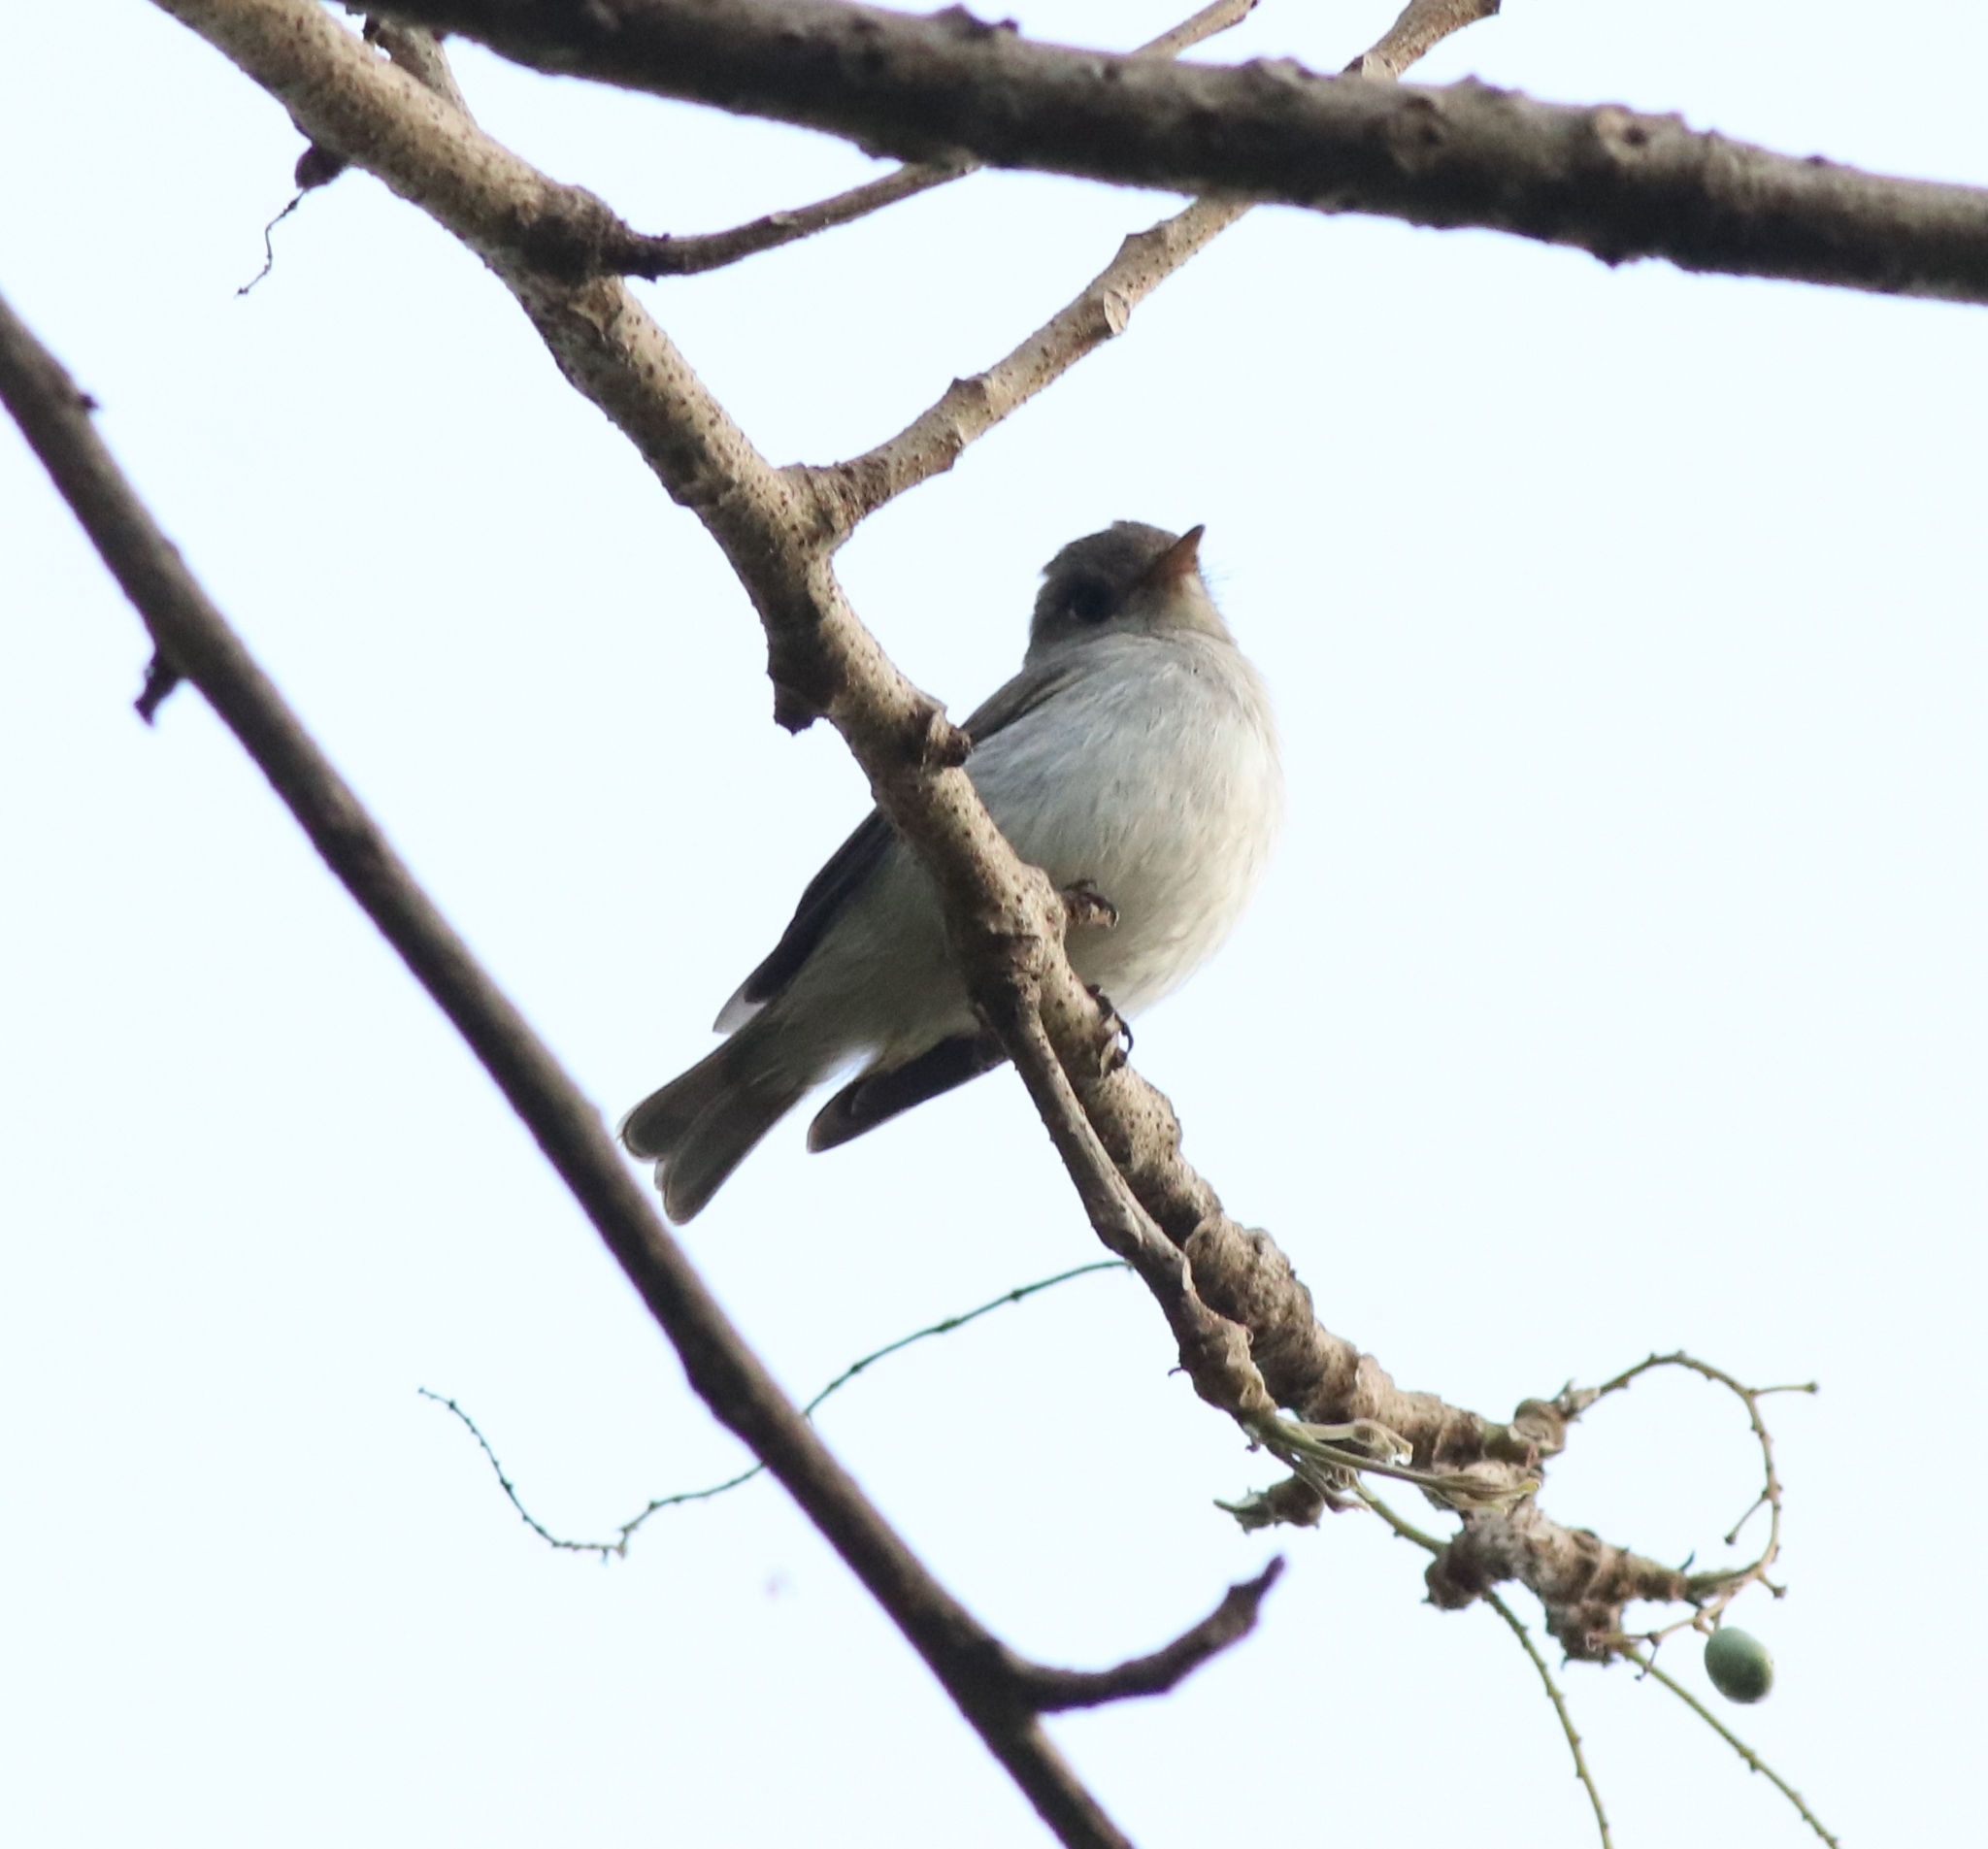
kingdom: Animalia
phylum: Chordata
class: Aves
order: Passeriformes
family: Muscicapidae
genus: Muscicapa
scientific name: Muscicapa latirostris
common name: Asian brown flycatcher
